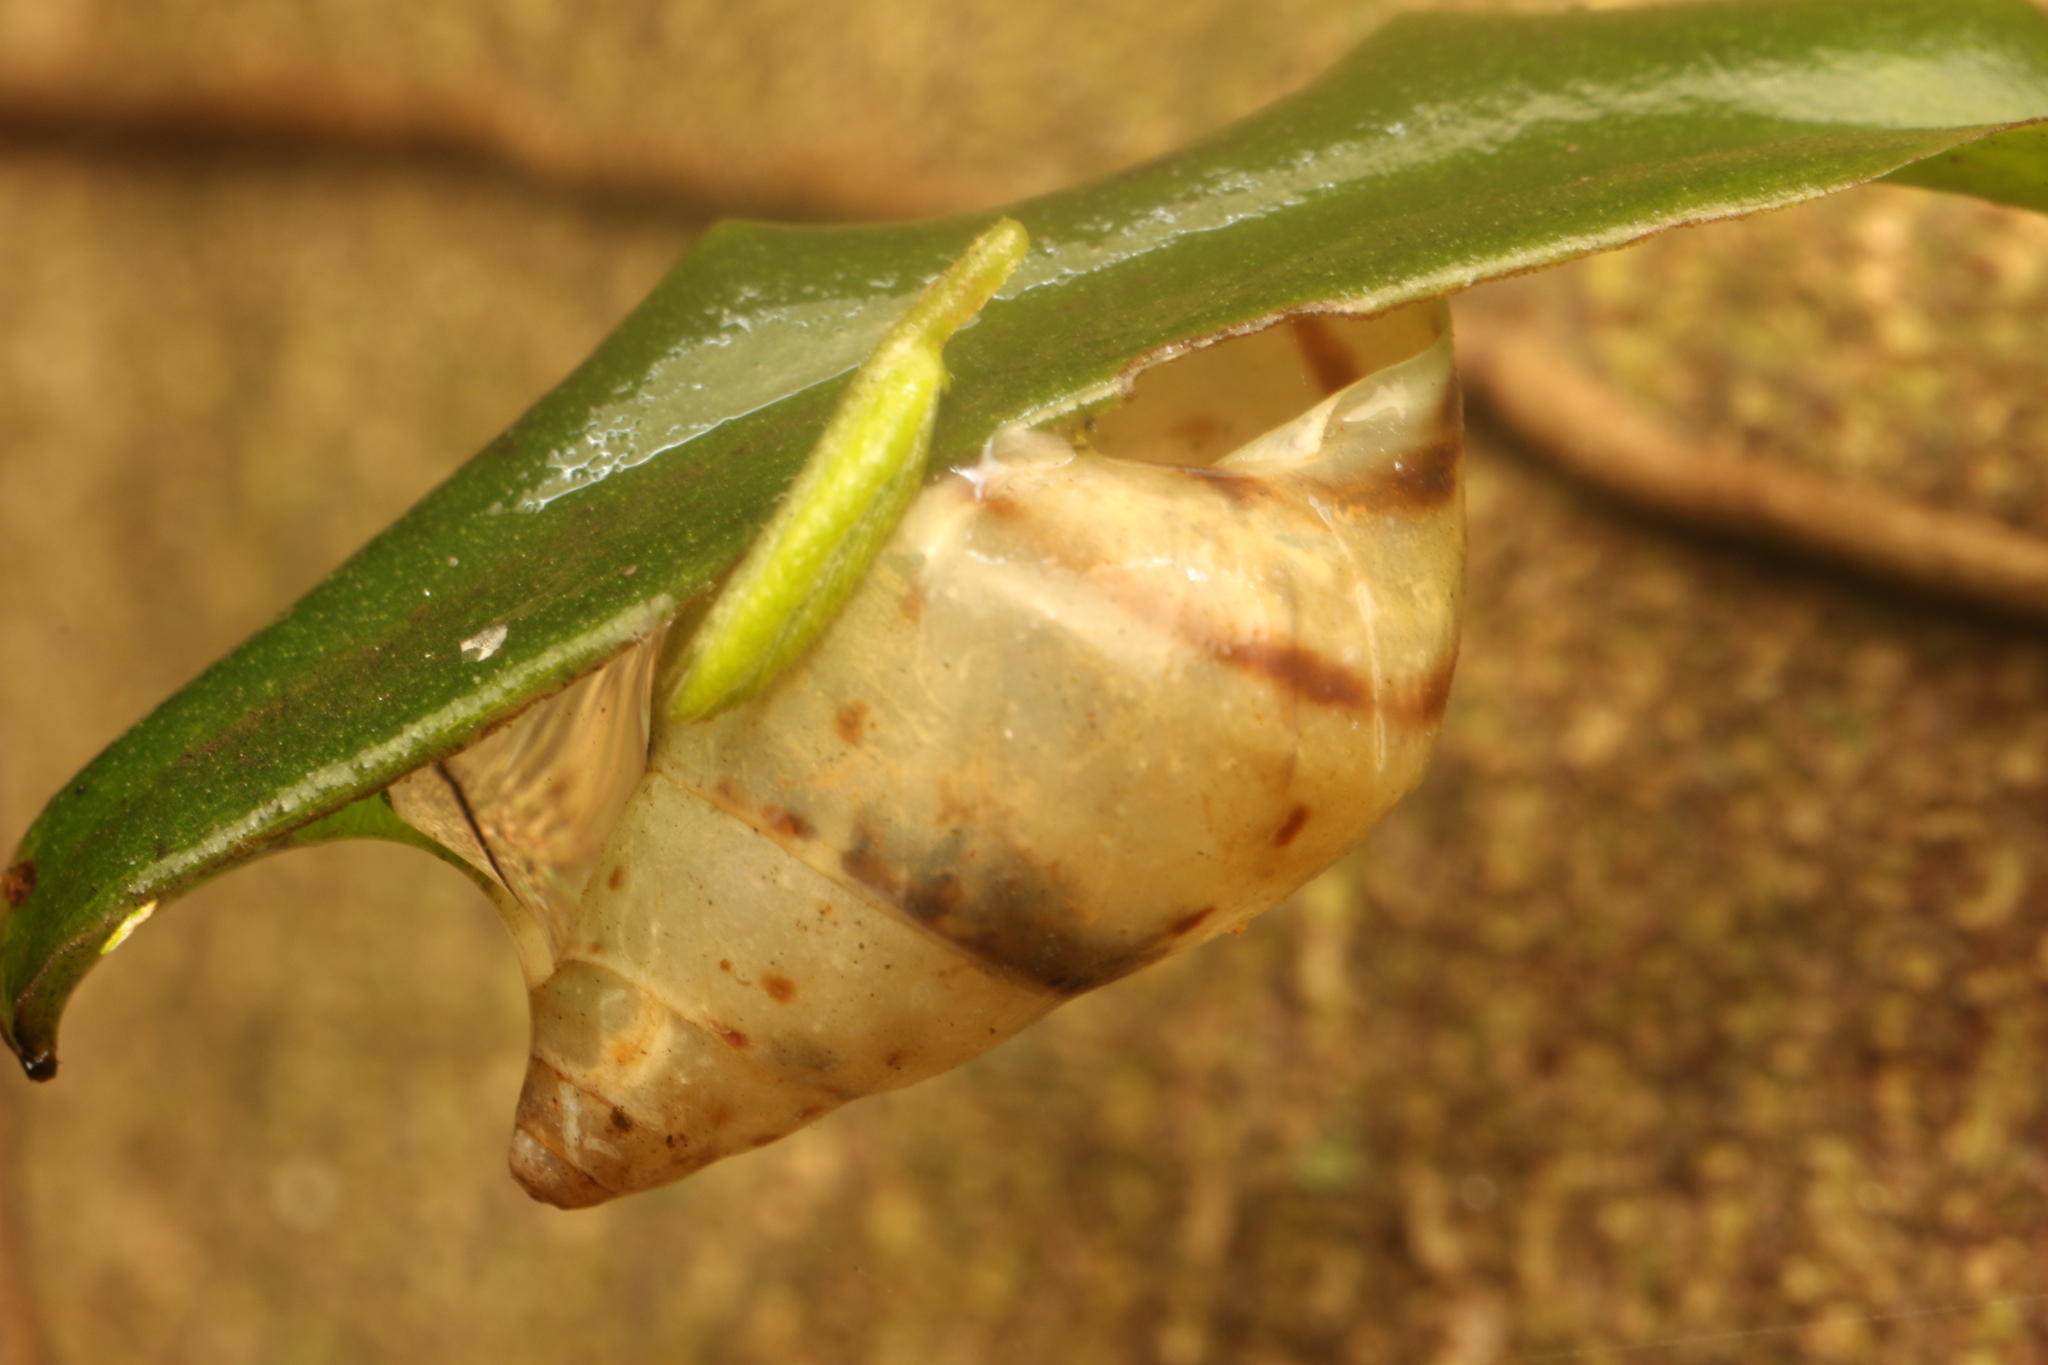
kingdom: Animalia
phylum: Mollusca
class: Gastropoda
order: Stylommatophora
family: Bulimulidae
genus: Drymaeus
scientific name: Drymaeus
